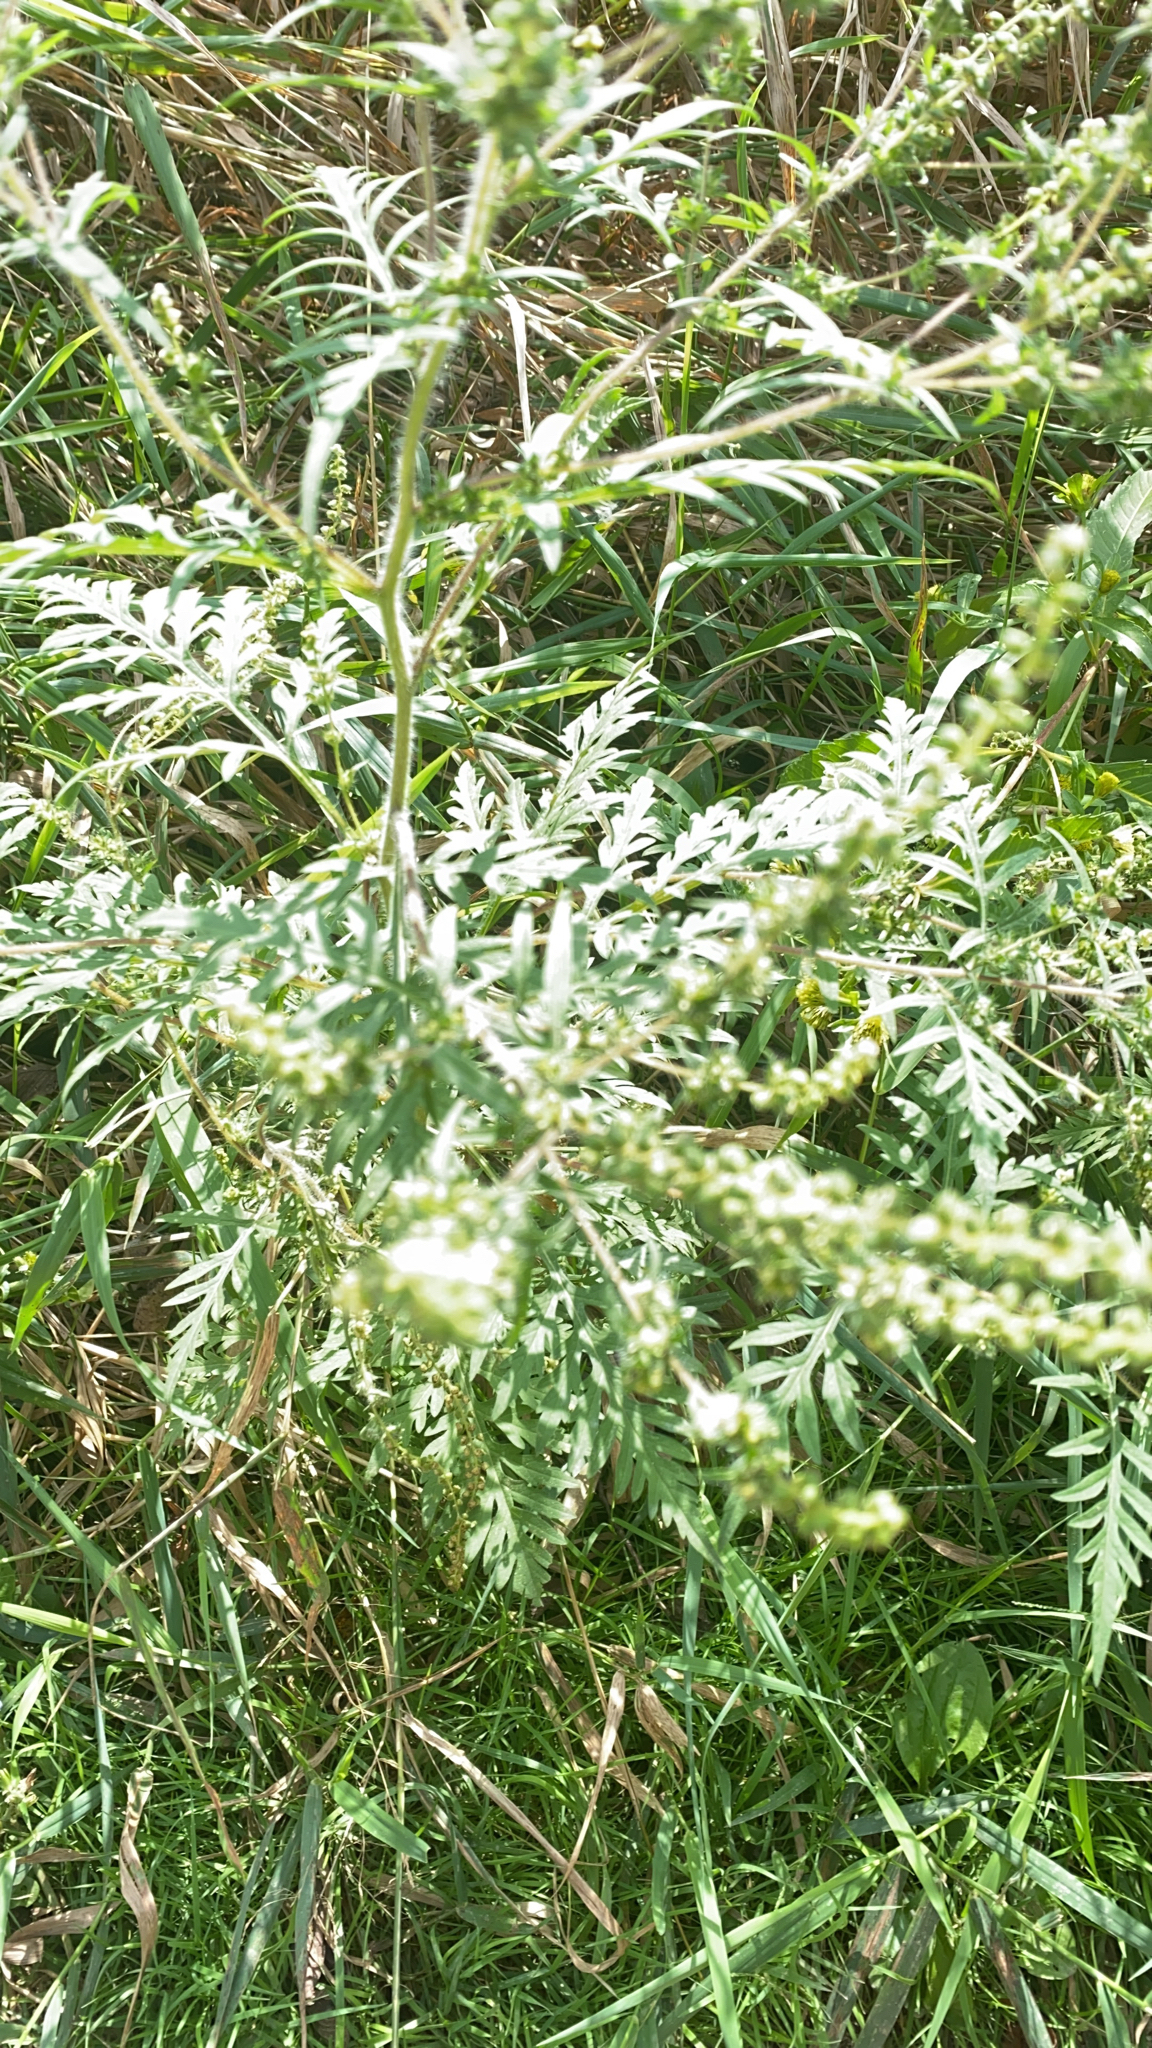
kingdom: Plantae
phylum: Tracheophyta
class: Magnoliopsida
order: Asterales
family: Asteraceae
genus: Ambrosia
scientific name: Ambrosia artemisiifolia
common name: Annual ragweed
